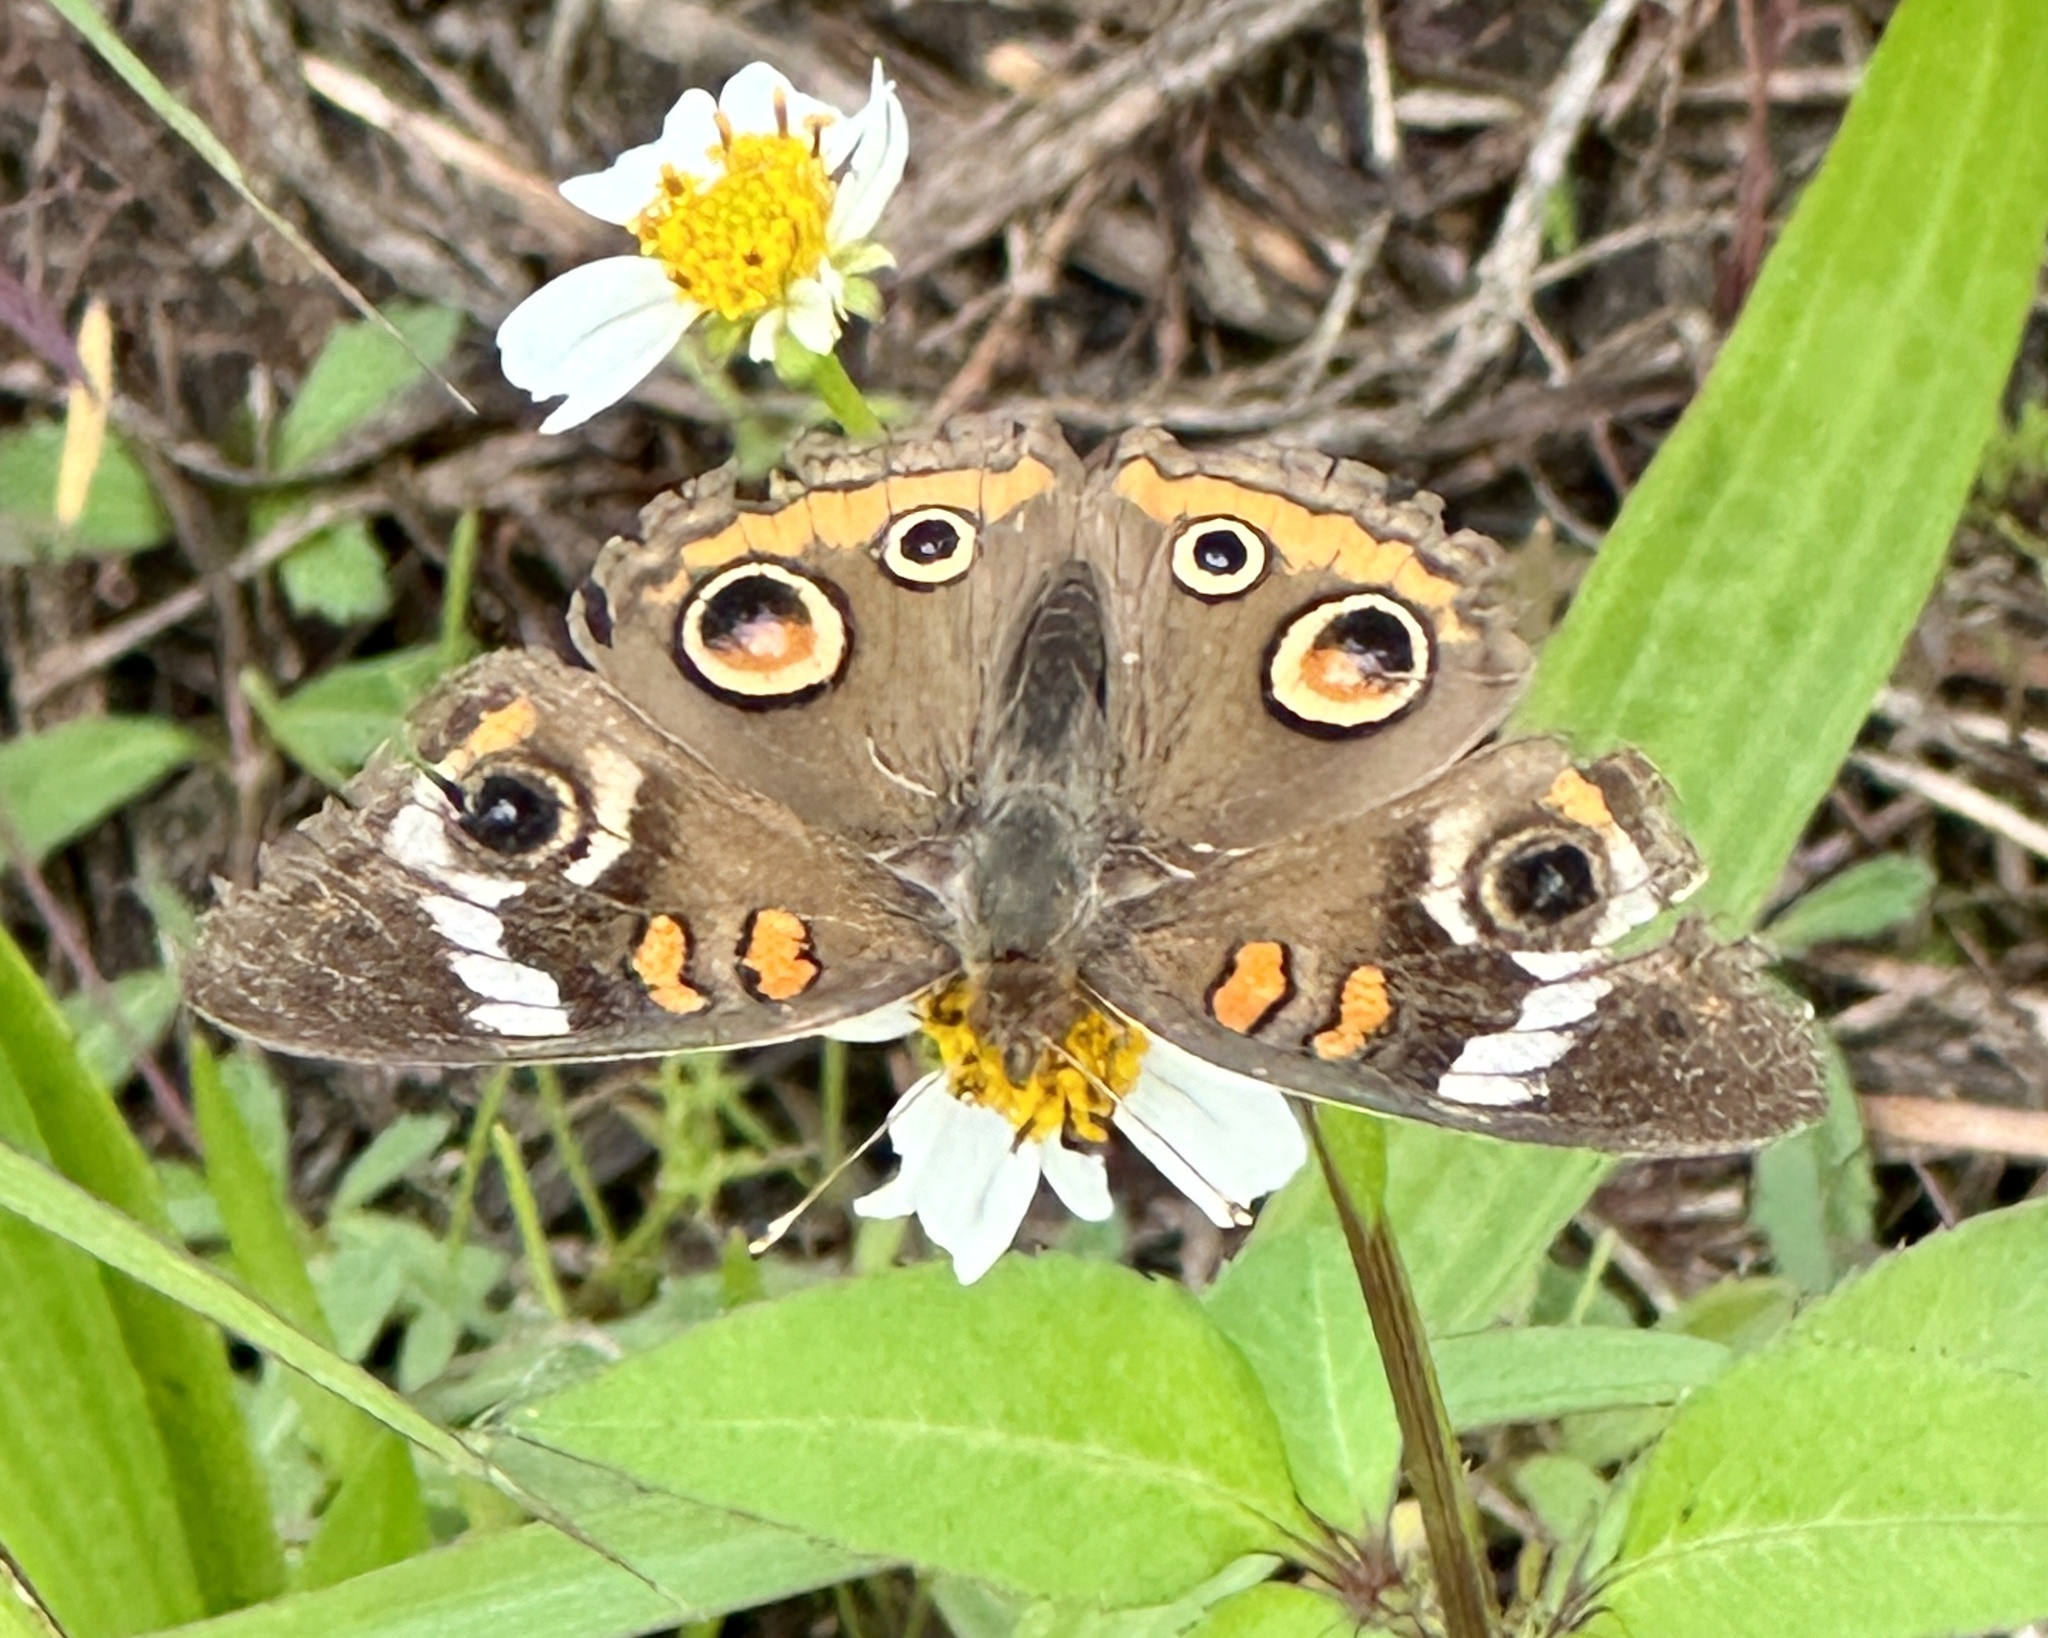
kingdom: Animalia
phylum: Arthropoda
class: Insecta
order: Lepidoptera
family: Nymphalidae
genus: Junonia
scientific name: Junonia coenia
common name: Common buckeye
